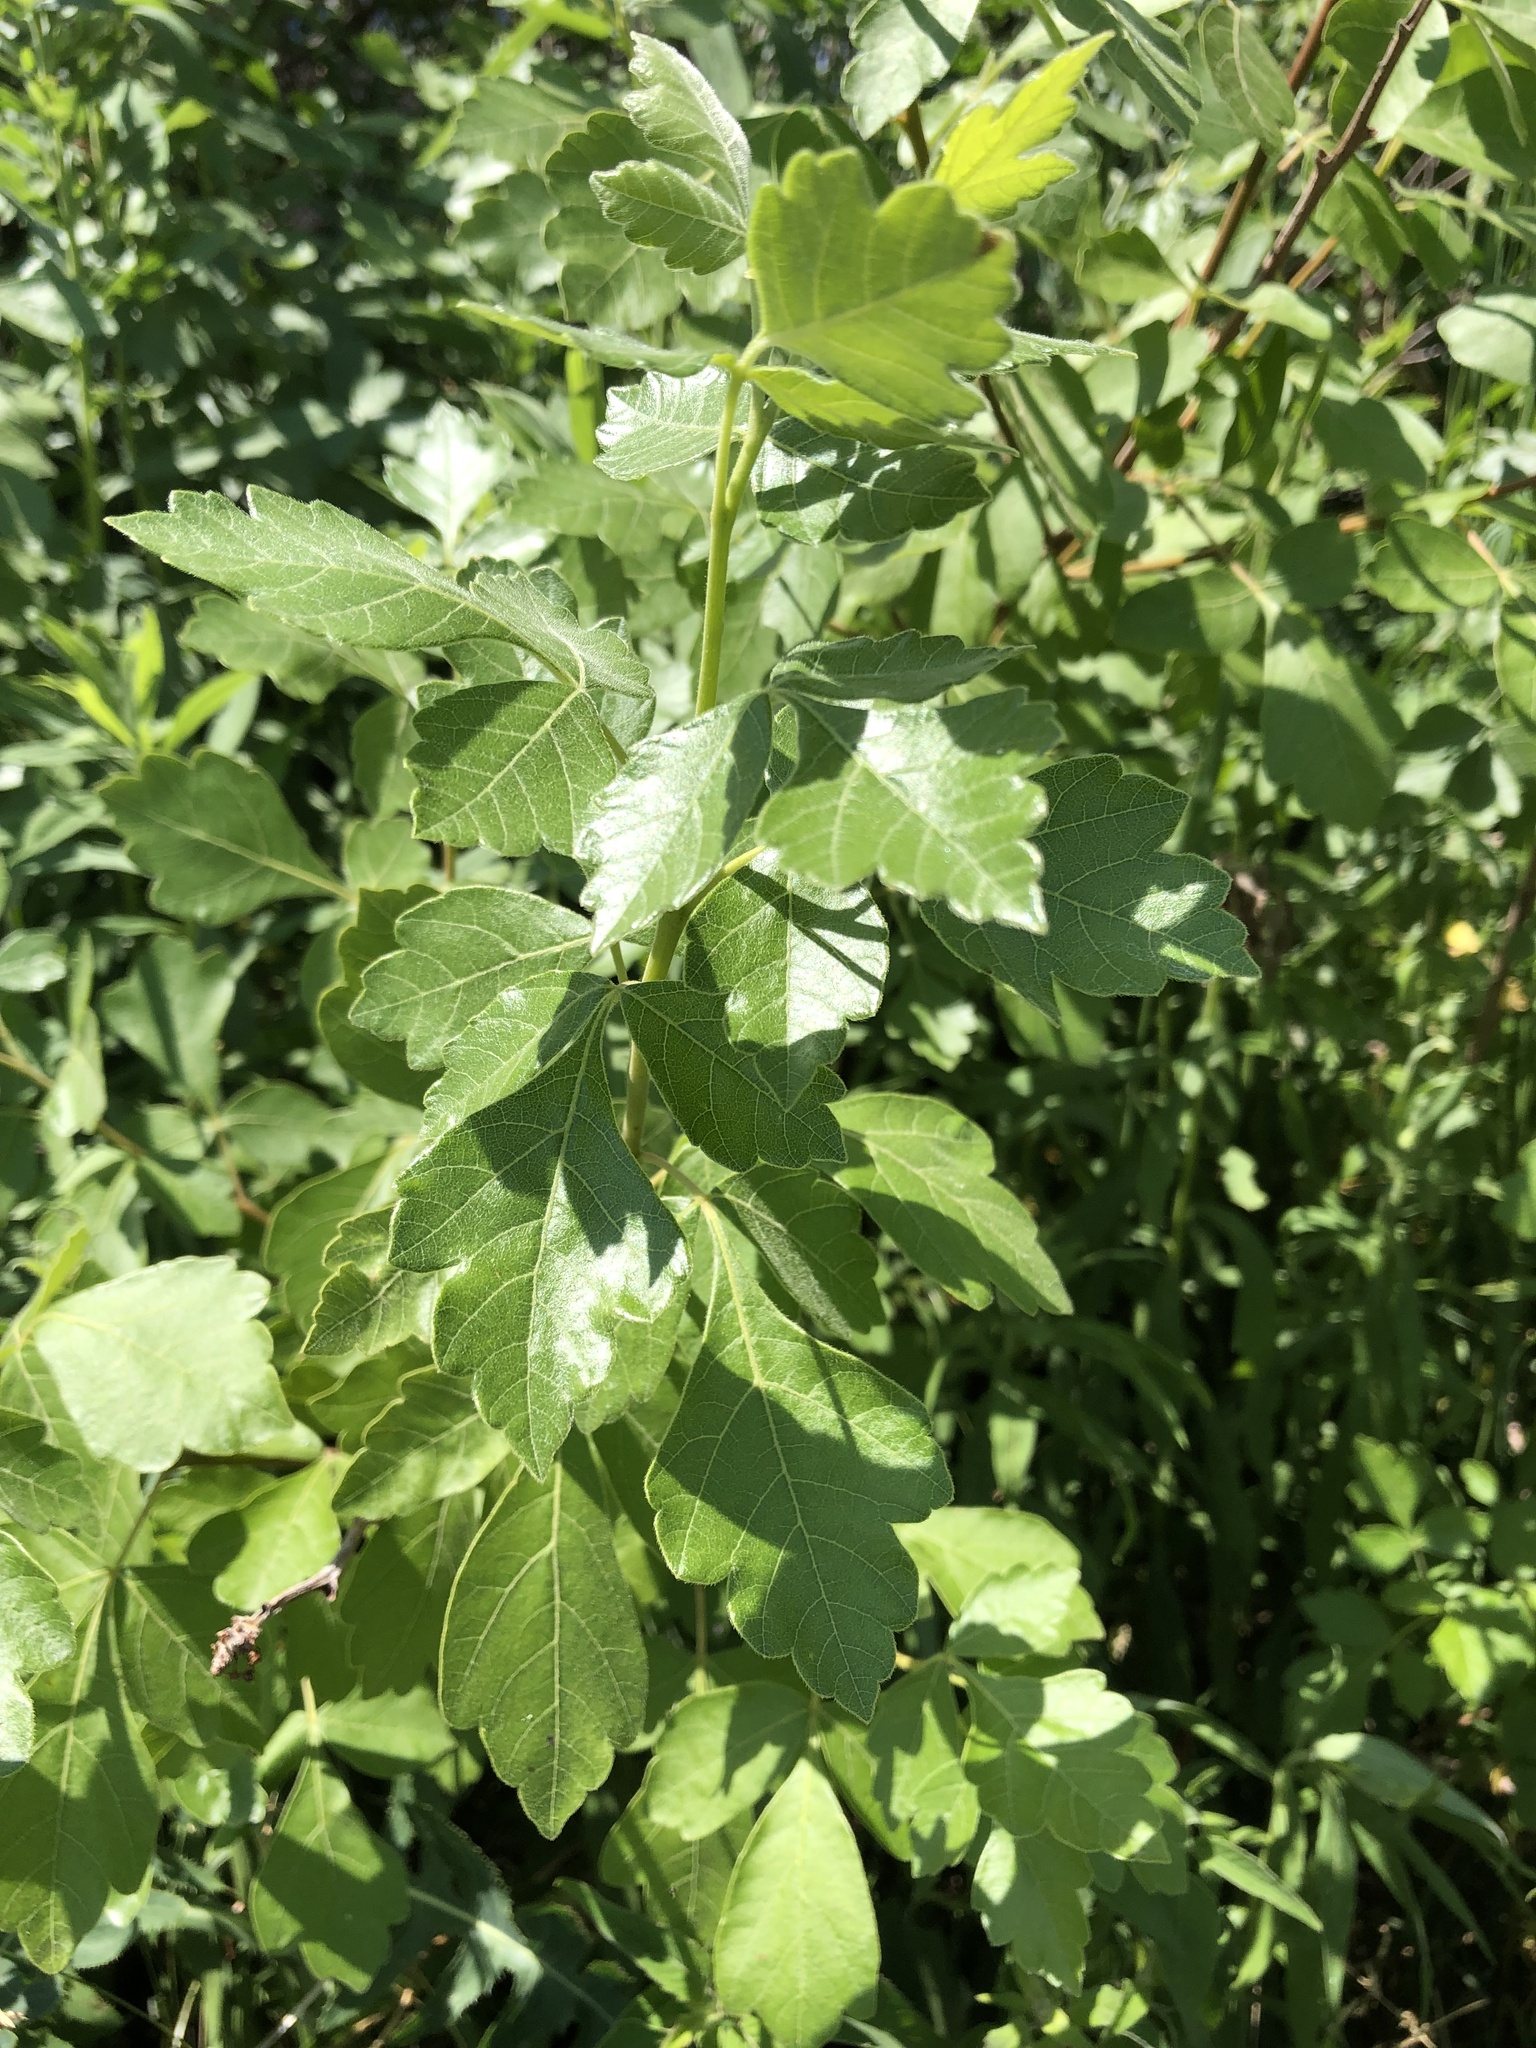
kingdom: Plantae
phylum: Tracheophyta
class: Magnoliopsida
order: Sapindales
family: Anacardiaceae
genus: Rhus
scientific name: Rhus aromatica
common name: Aromatic sumac
